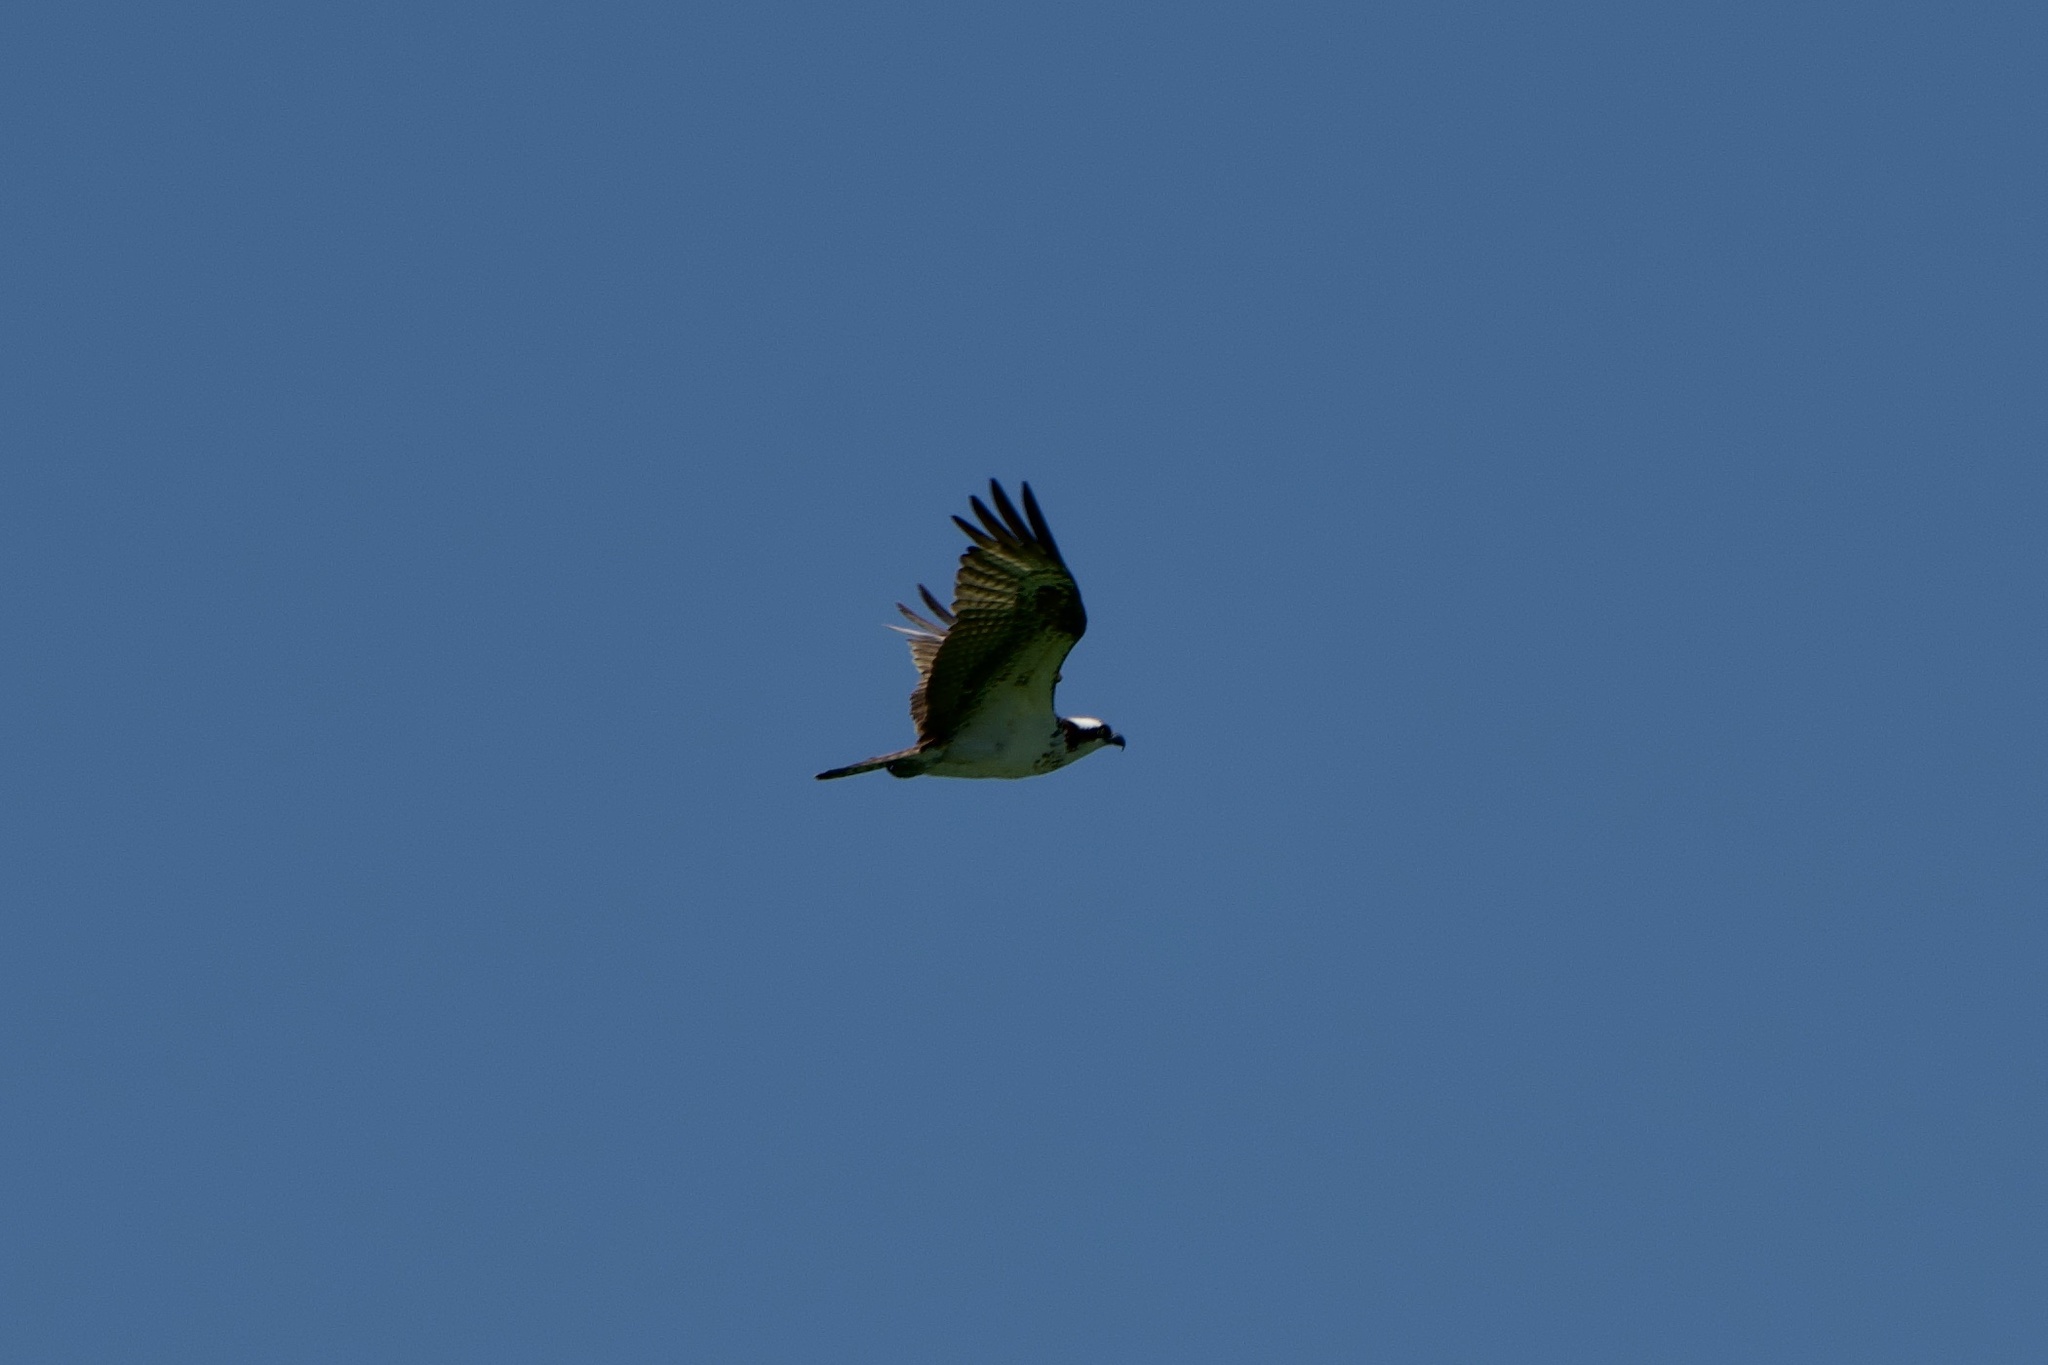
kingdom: Animalia
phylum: Chordata
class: Aves
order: Accipitriformes
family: Pandionidae
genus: Pandion
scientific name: Pandion haliaetus
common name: Osprey
